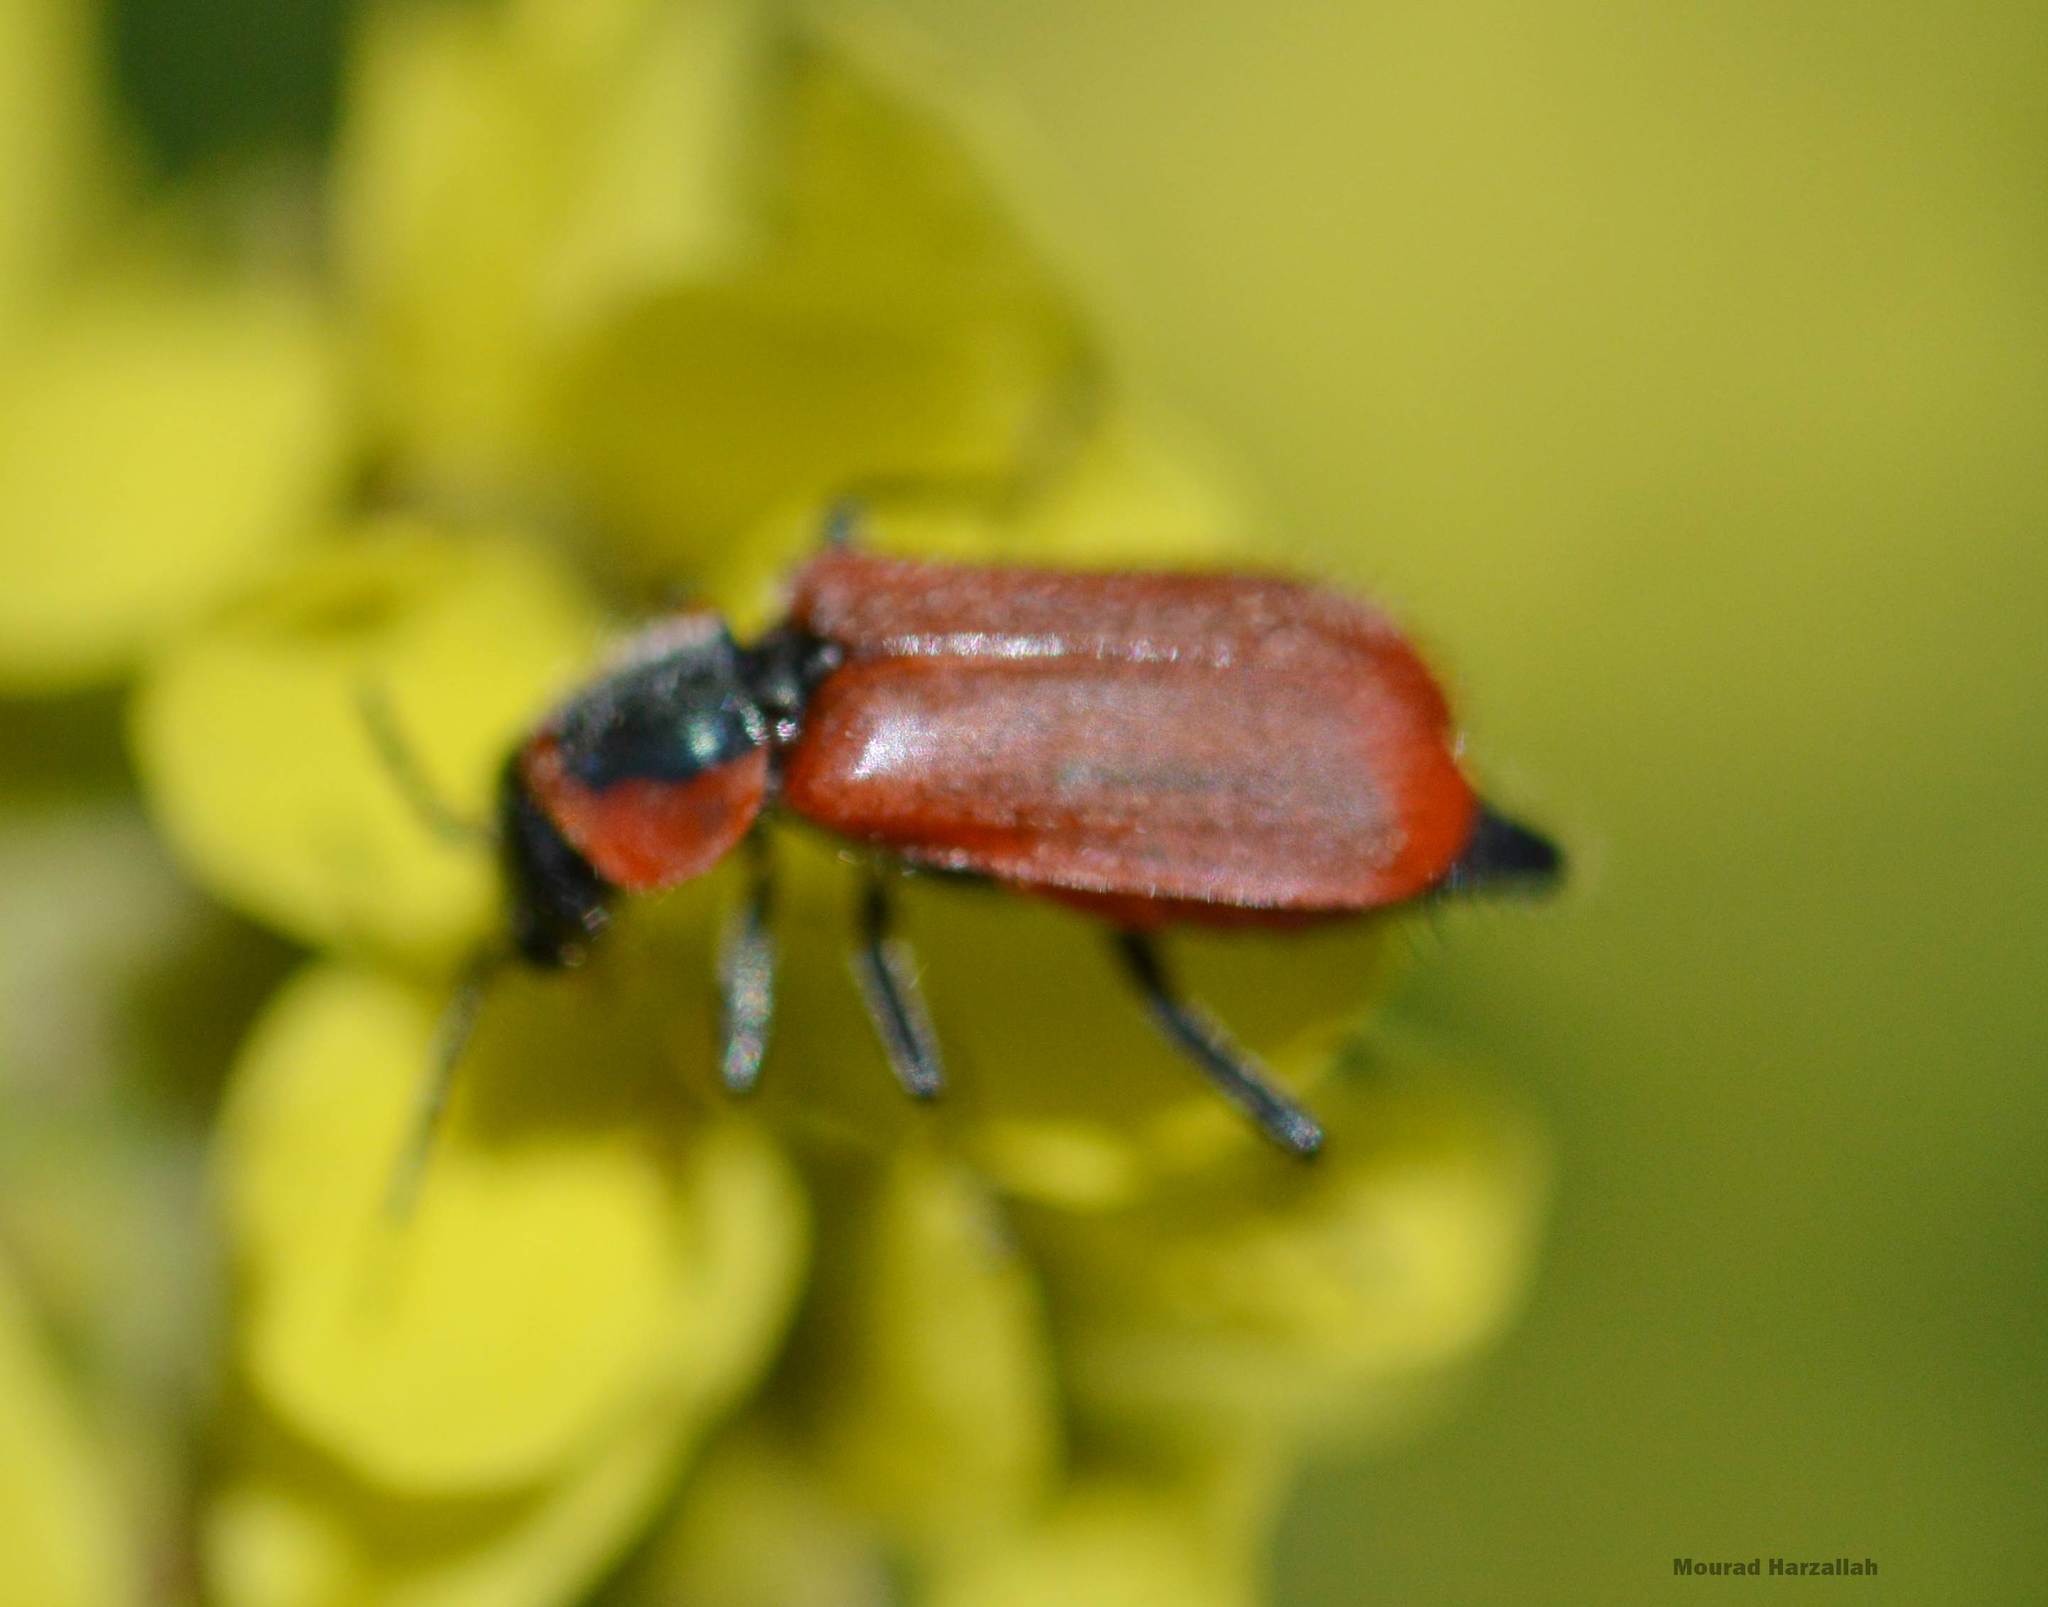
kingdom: Animalia
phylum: Arthropoda
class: Insecta
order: Coleoptera
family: Malachiidae
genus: Clanoptilus
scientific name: Clanoptilus rufus
